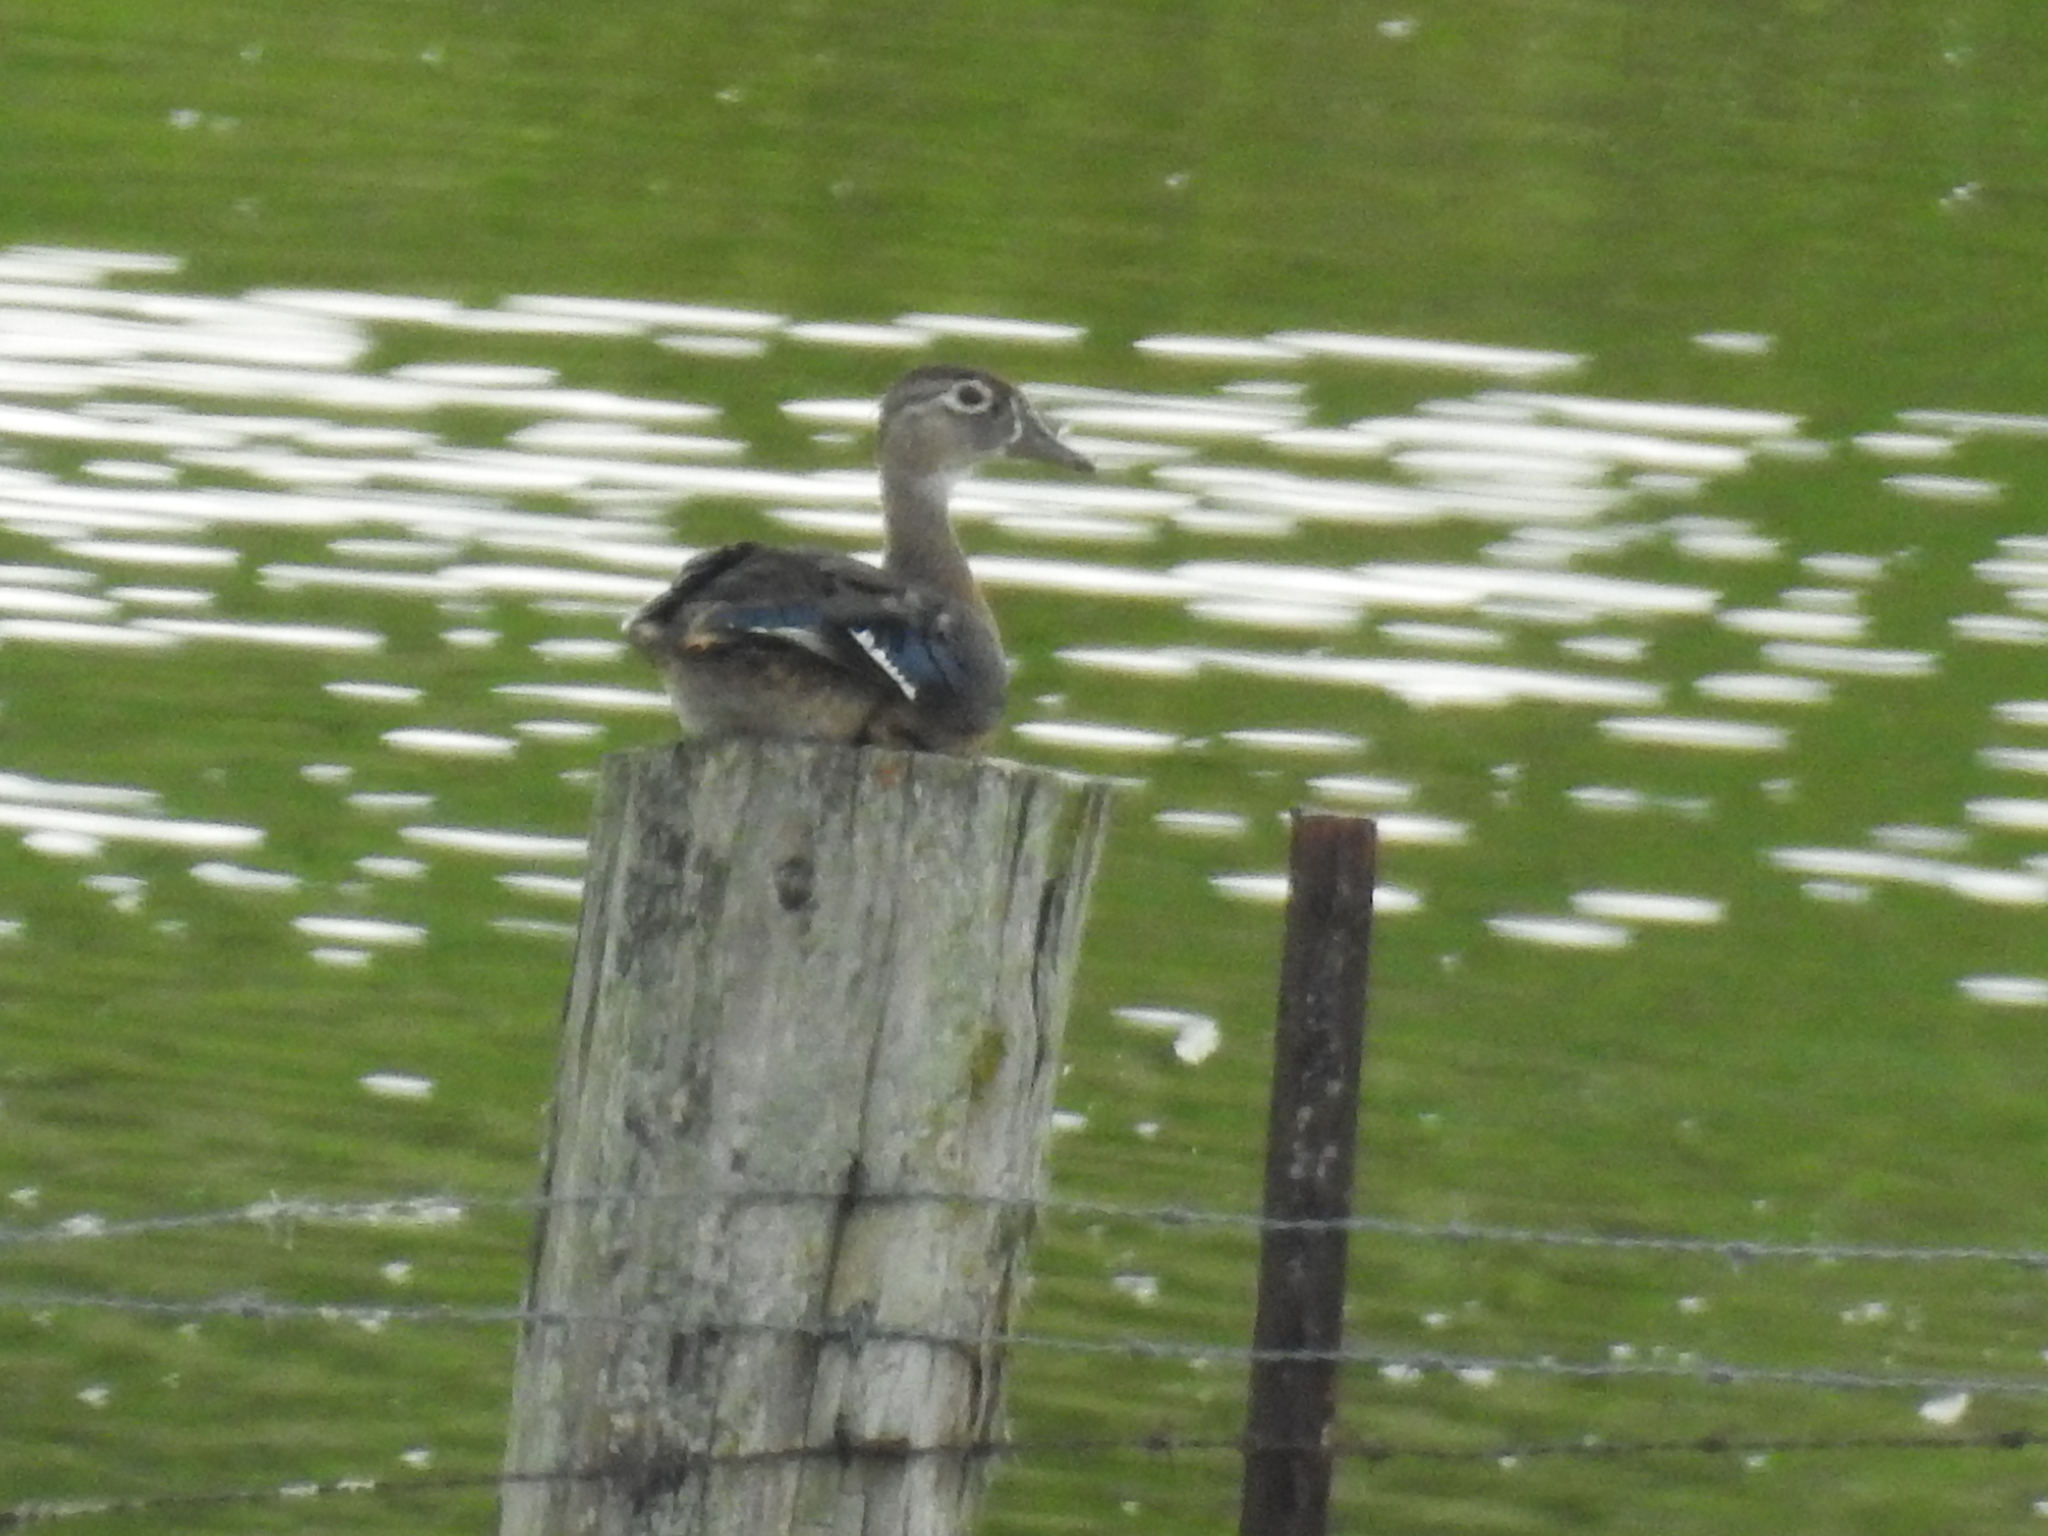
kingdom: Animalia
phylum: Chordata
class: Aves
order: Anseriformes
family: Anatidae
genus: Aix
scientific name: Aix sponsa
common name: Wood duck
